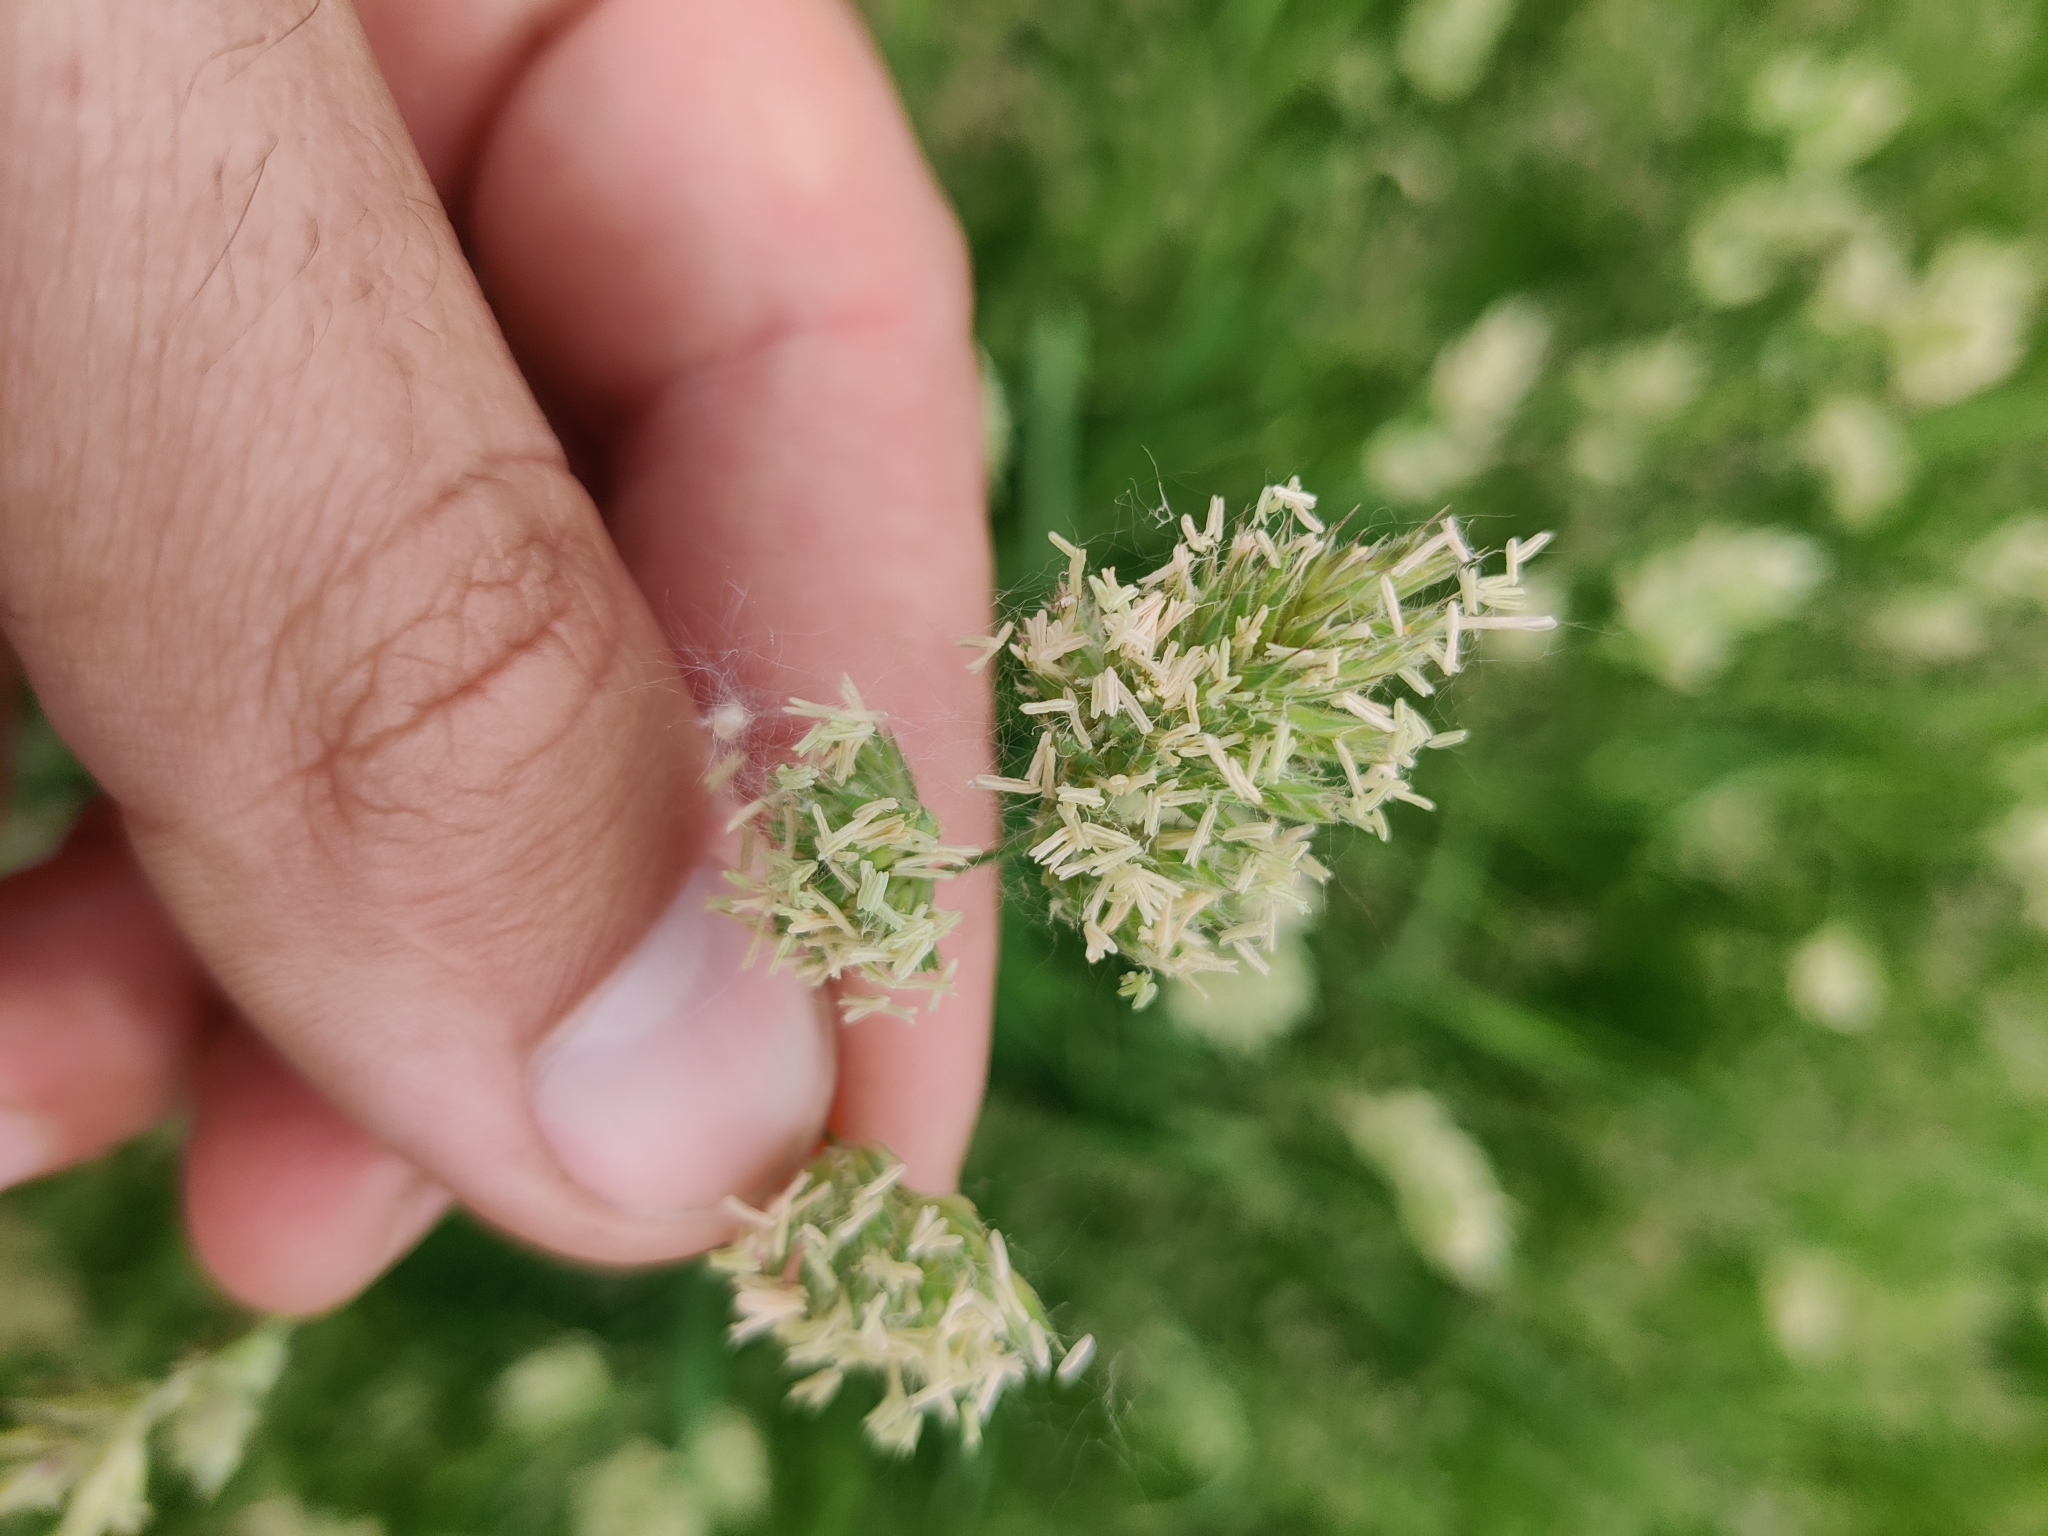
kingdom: Plantae
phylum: Tracheophyta
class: Liliopsida
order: Poales
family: Poaceae
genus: Dactylis
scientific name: Dactylis glomerata
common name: Orchardgrass
